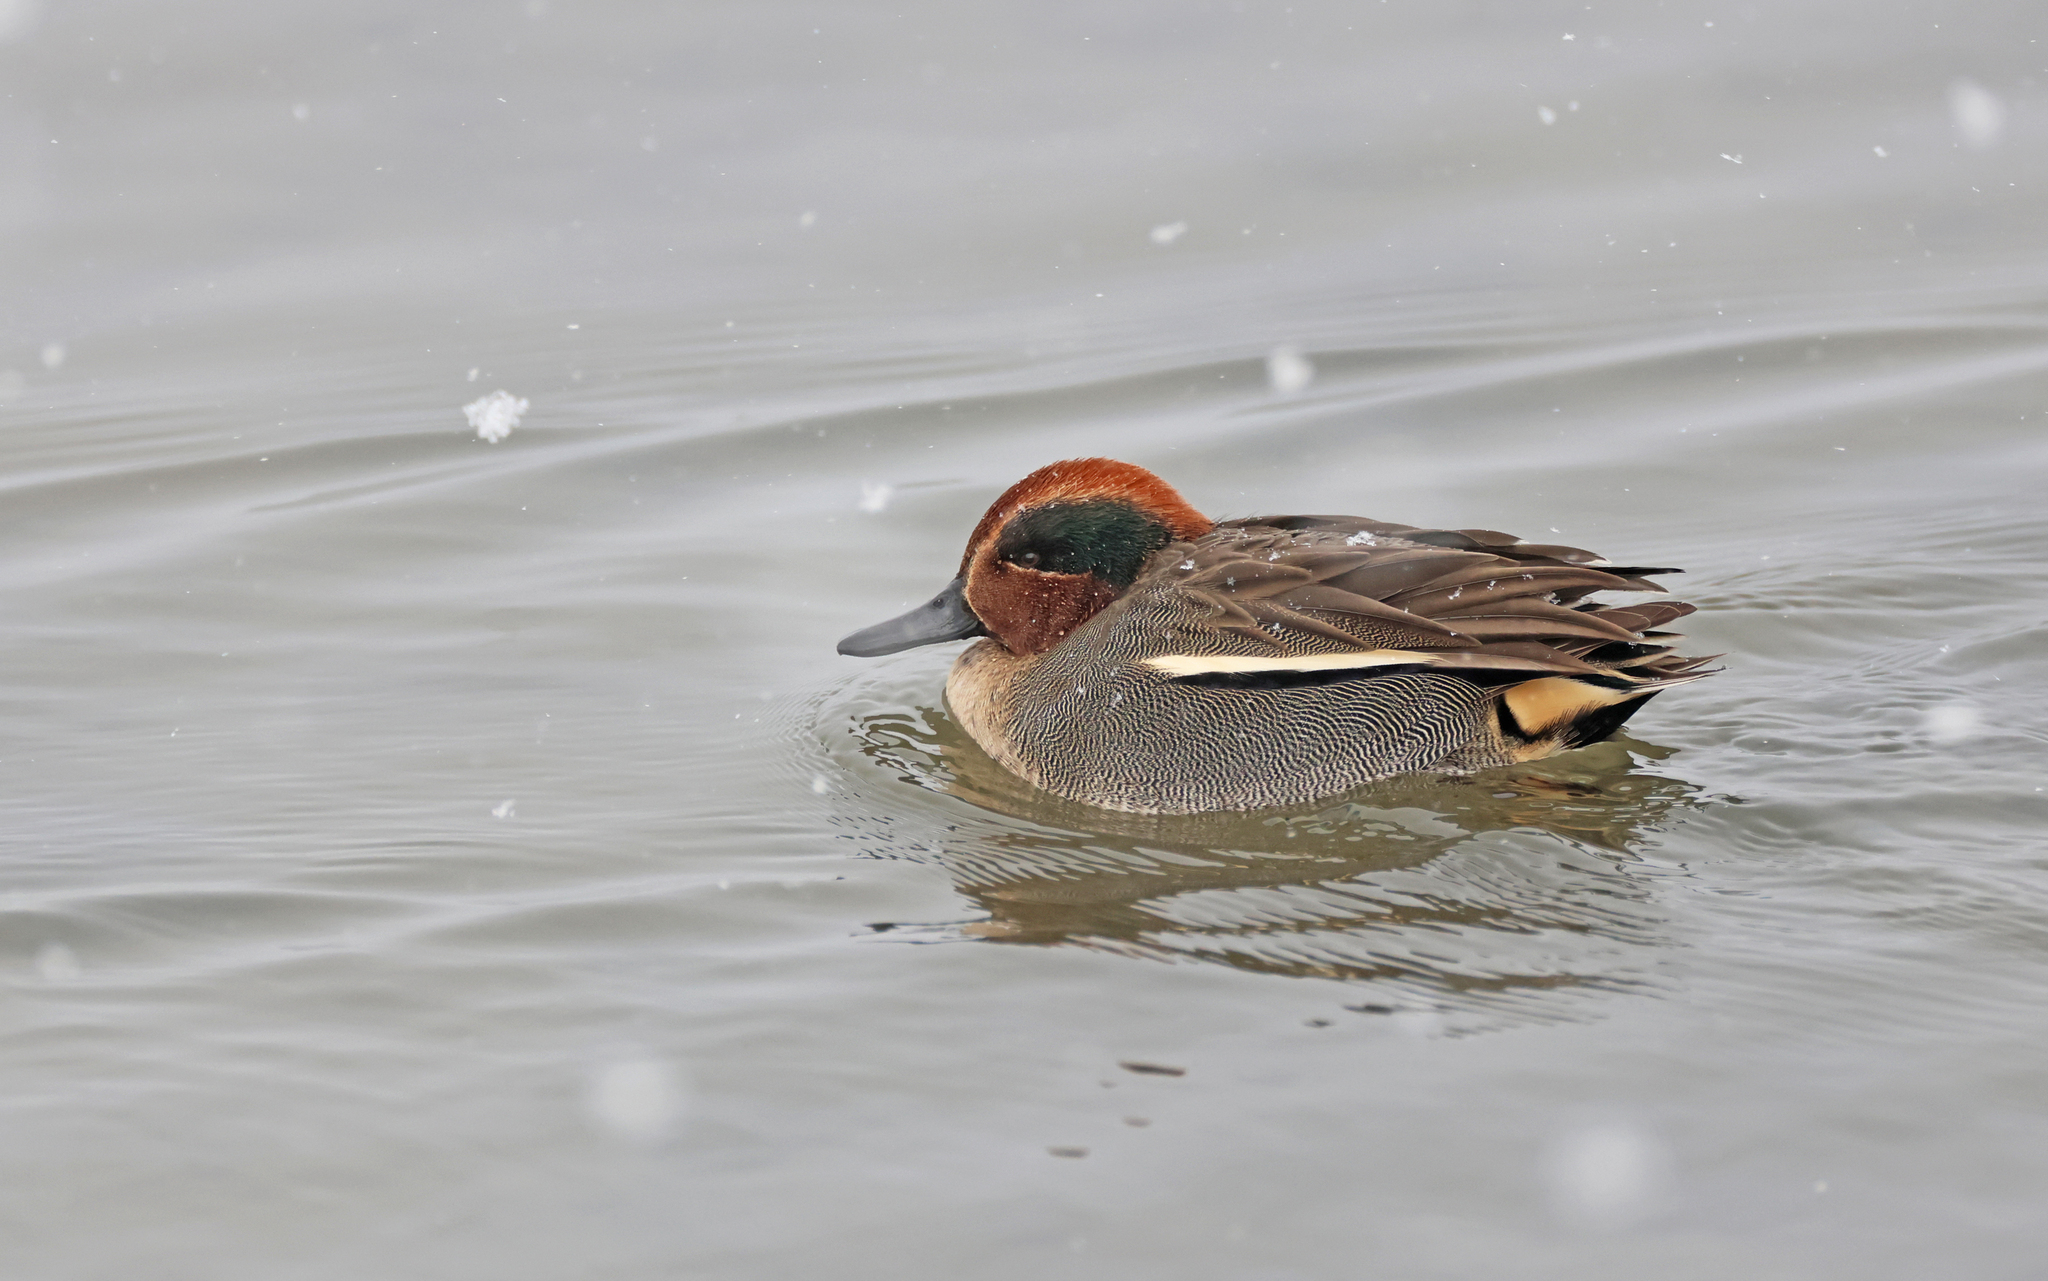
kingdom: Animalia
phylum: Chordata
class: Aves
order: Anseriformes
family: Anatidae
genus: Anas
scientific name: Anas crecca
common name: Eurasian teal
